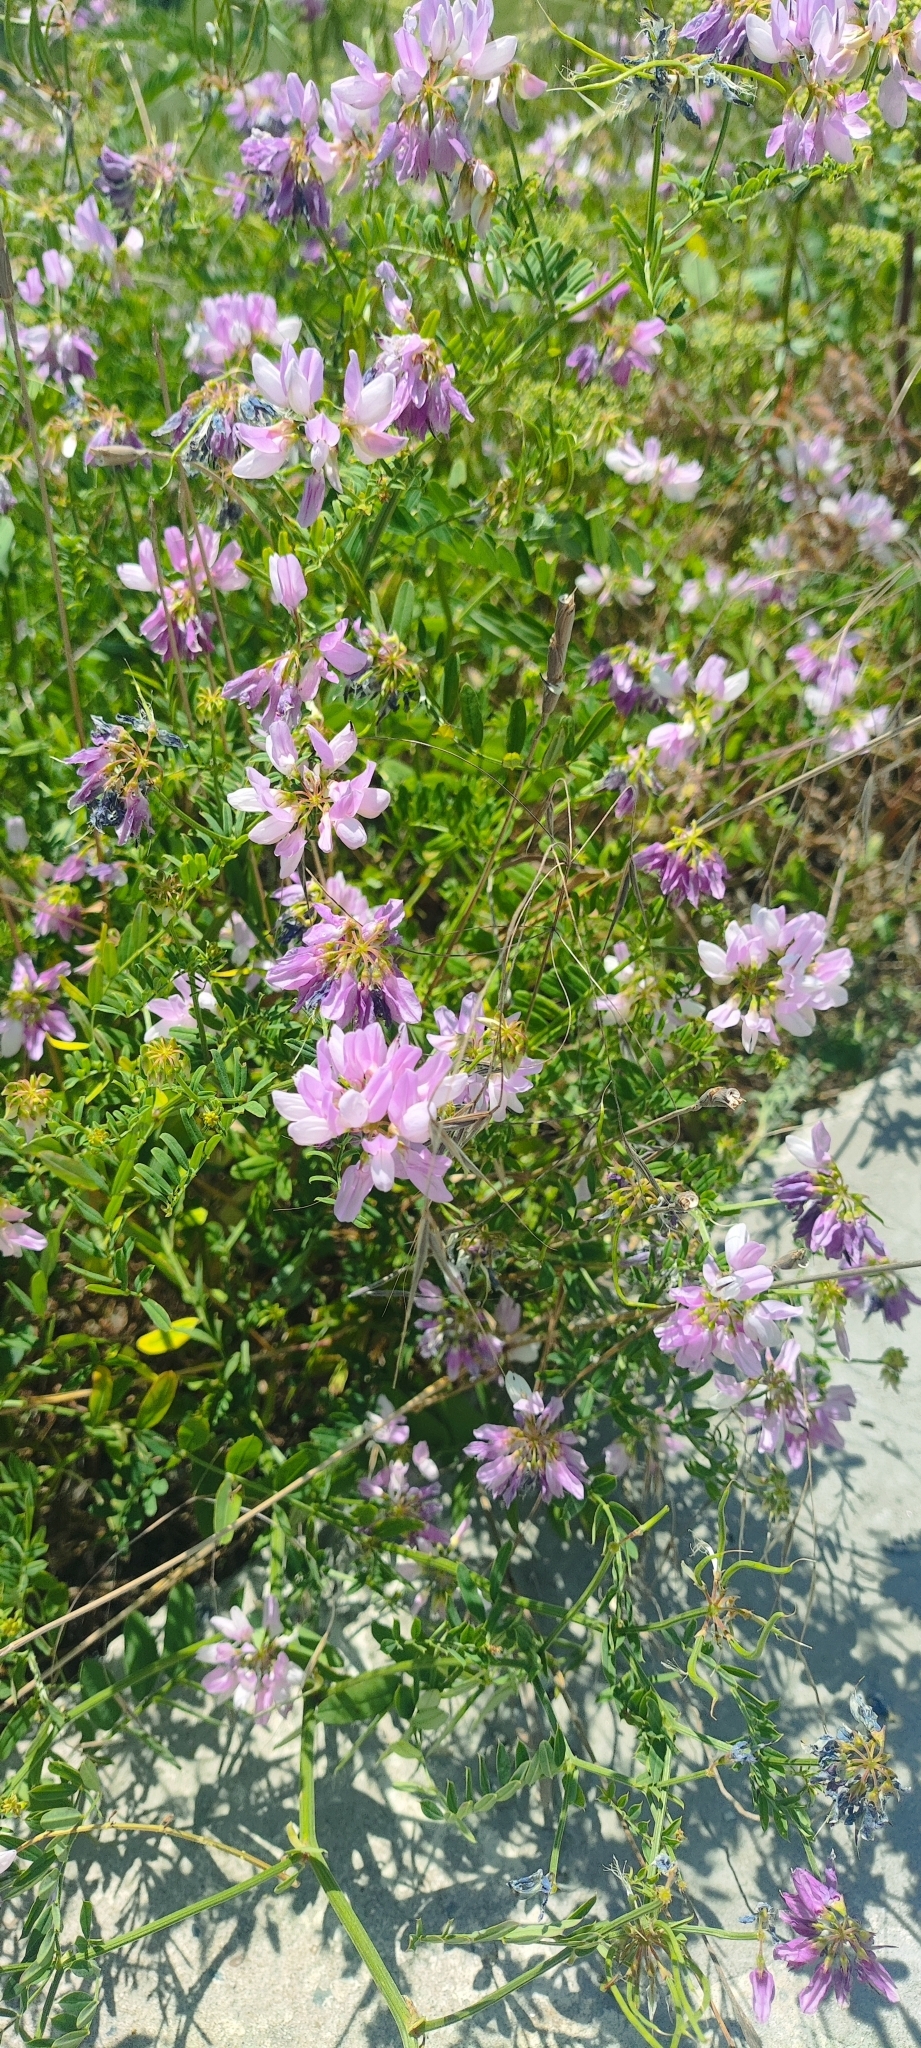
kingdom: Plantae
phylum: Tracheophyta
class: Magnoliopsida
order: Fabales
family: Fabaceae
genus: Coronilla
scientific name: Coronilla varia
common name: Crownvetch
